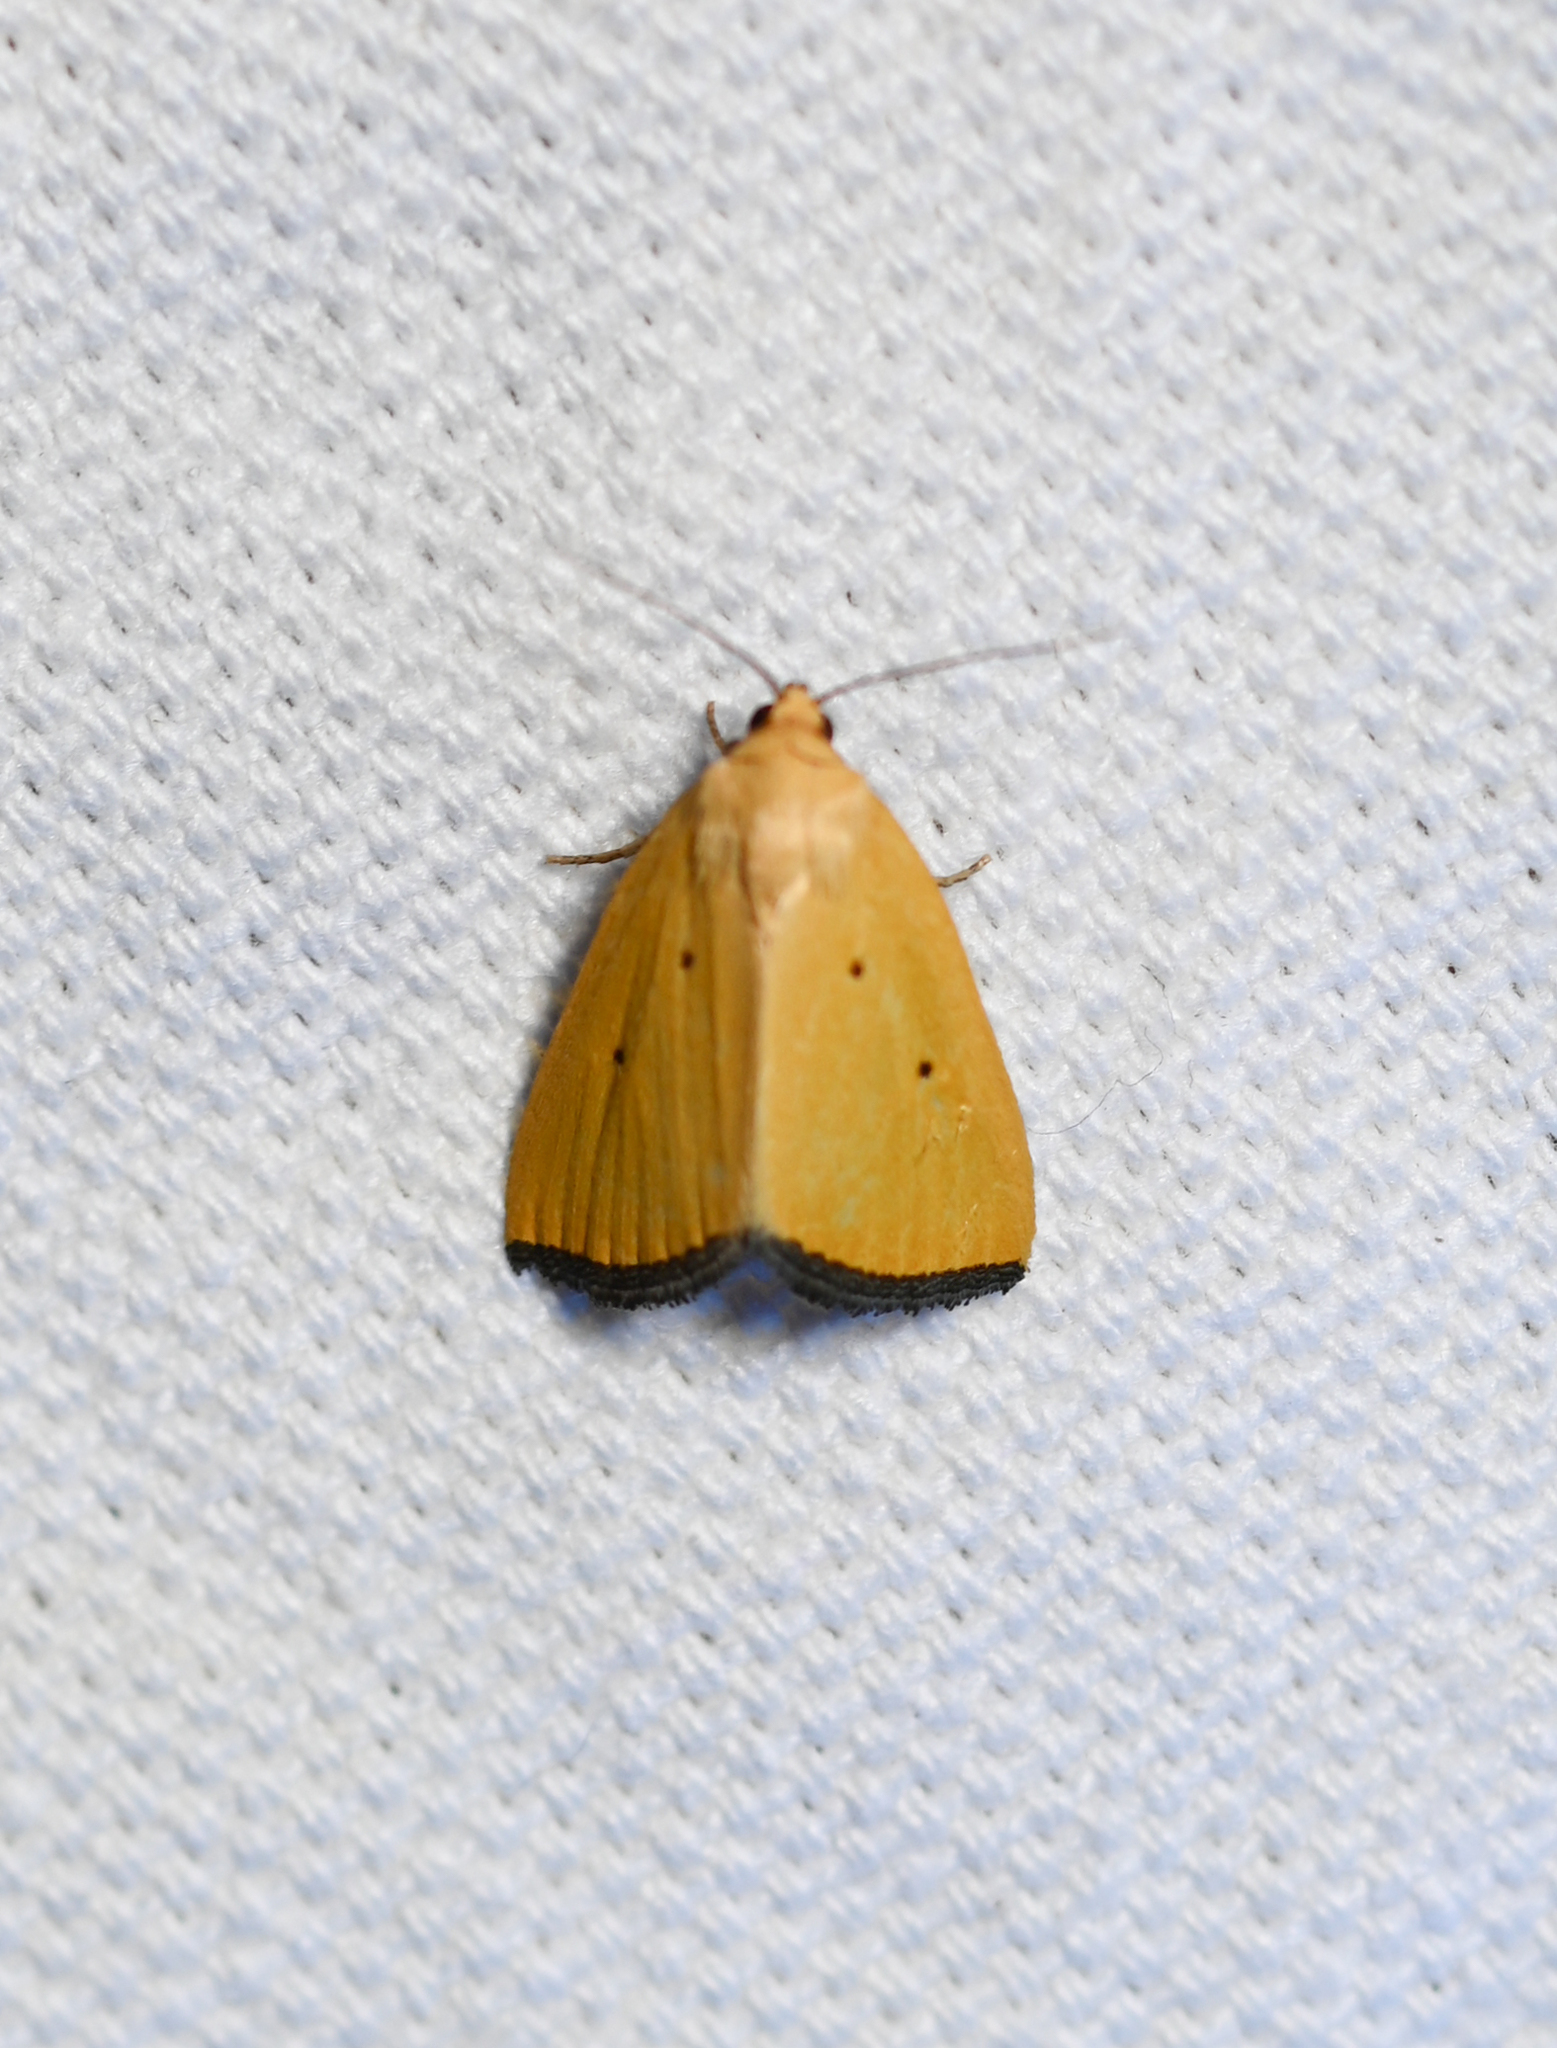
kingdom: Animalia
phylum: Arthropoda
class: Insecta
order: Lepidoptera
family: Noctuidae
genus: Marimatha
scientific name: Marimatha nigrofimbria
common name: Black-bordered lemon moth
